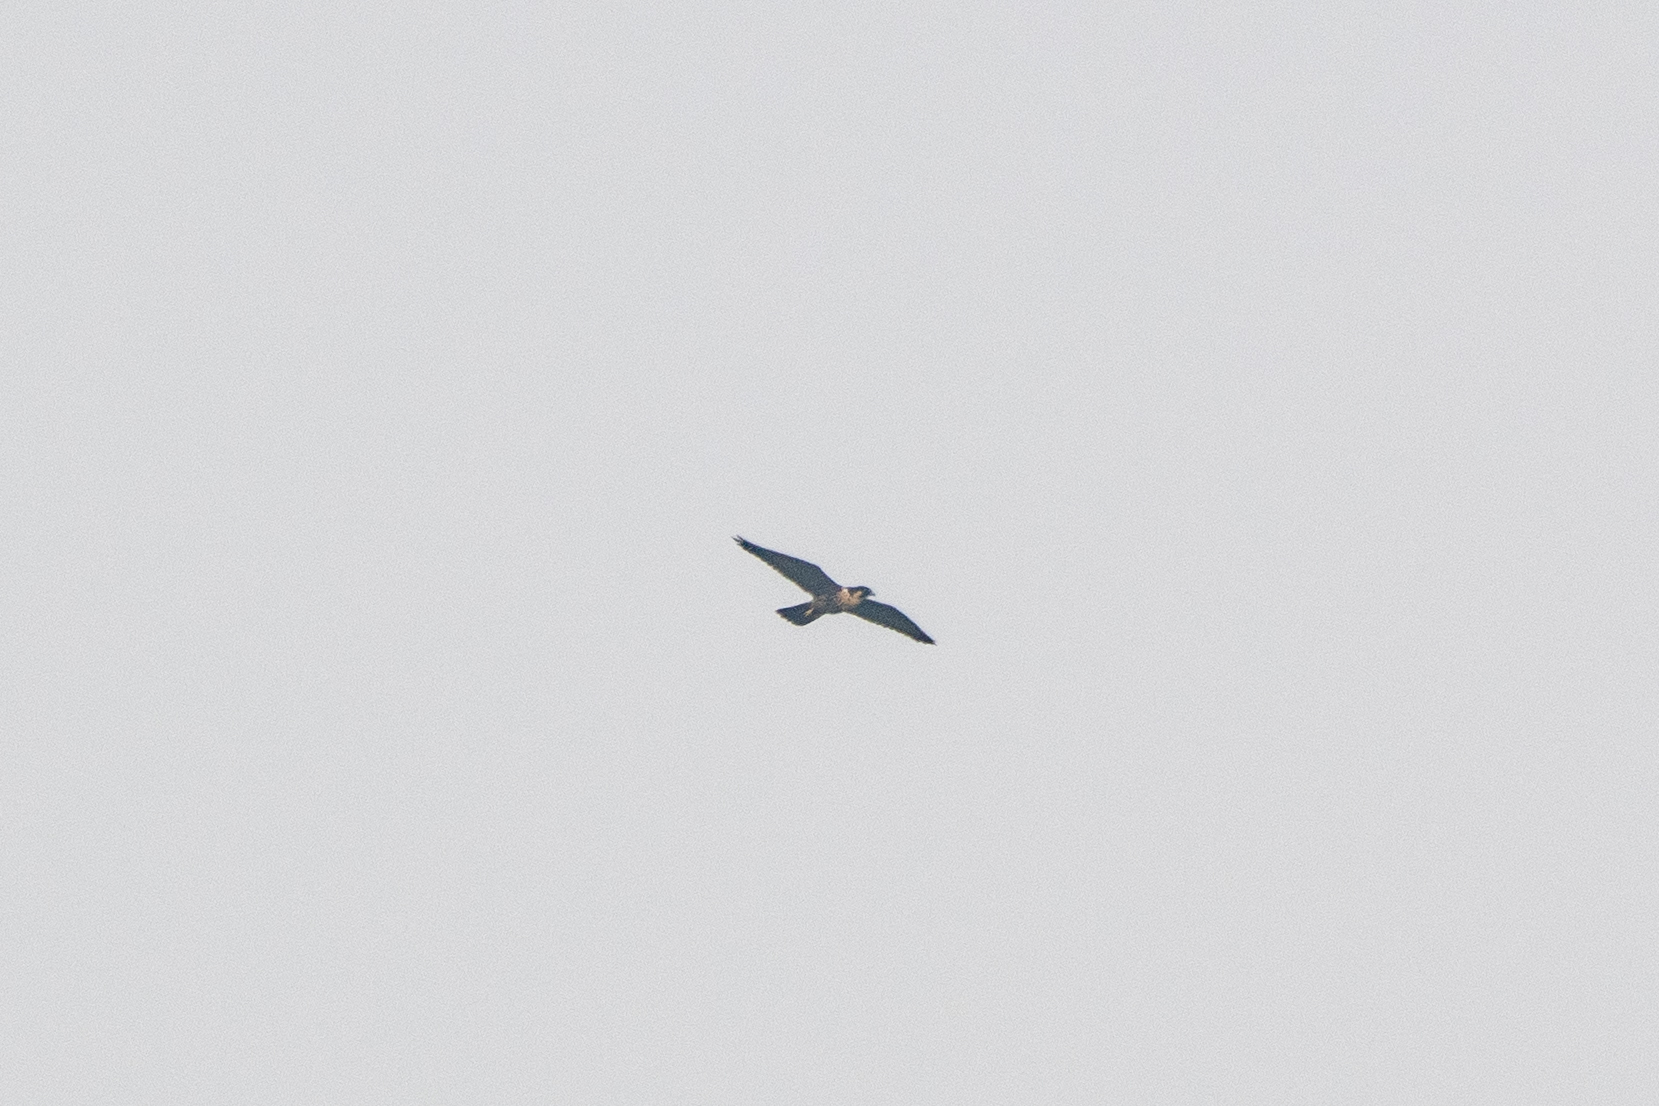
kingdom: Animalia
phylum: Chordata
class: Aves
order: Falconiformes
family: Falconidae
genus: Falco
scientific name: Falco peregrinus
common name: Peregrine falcon
